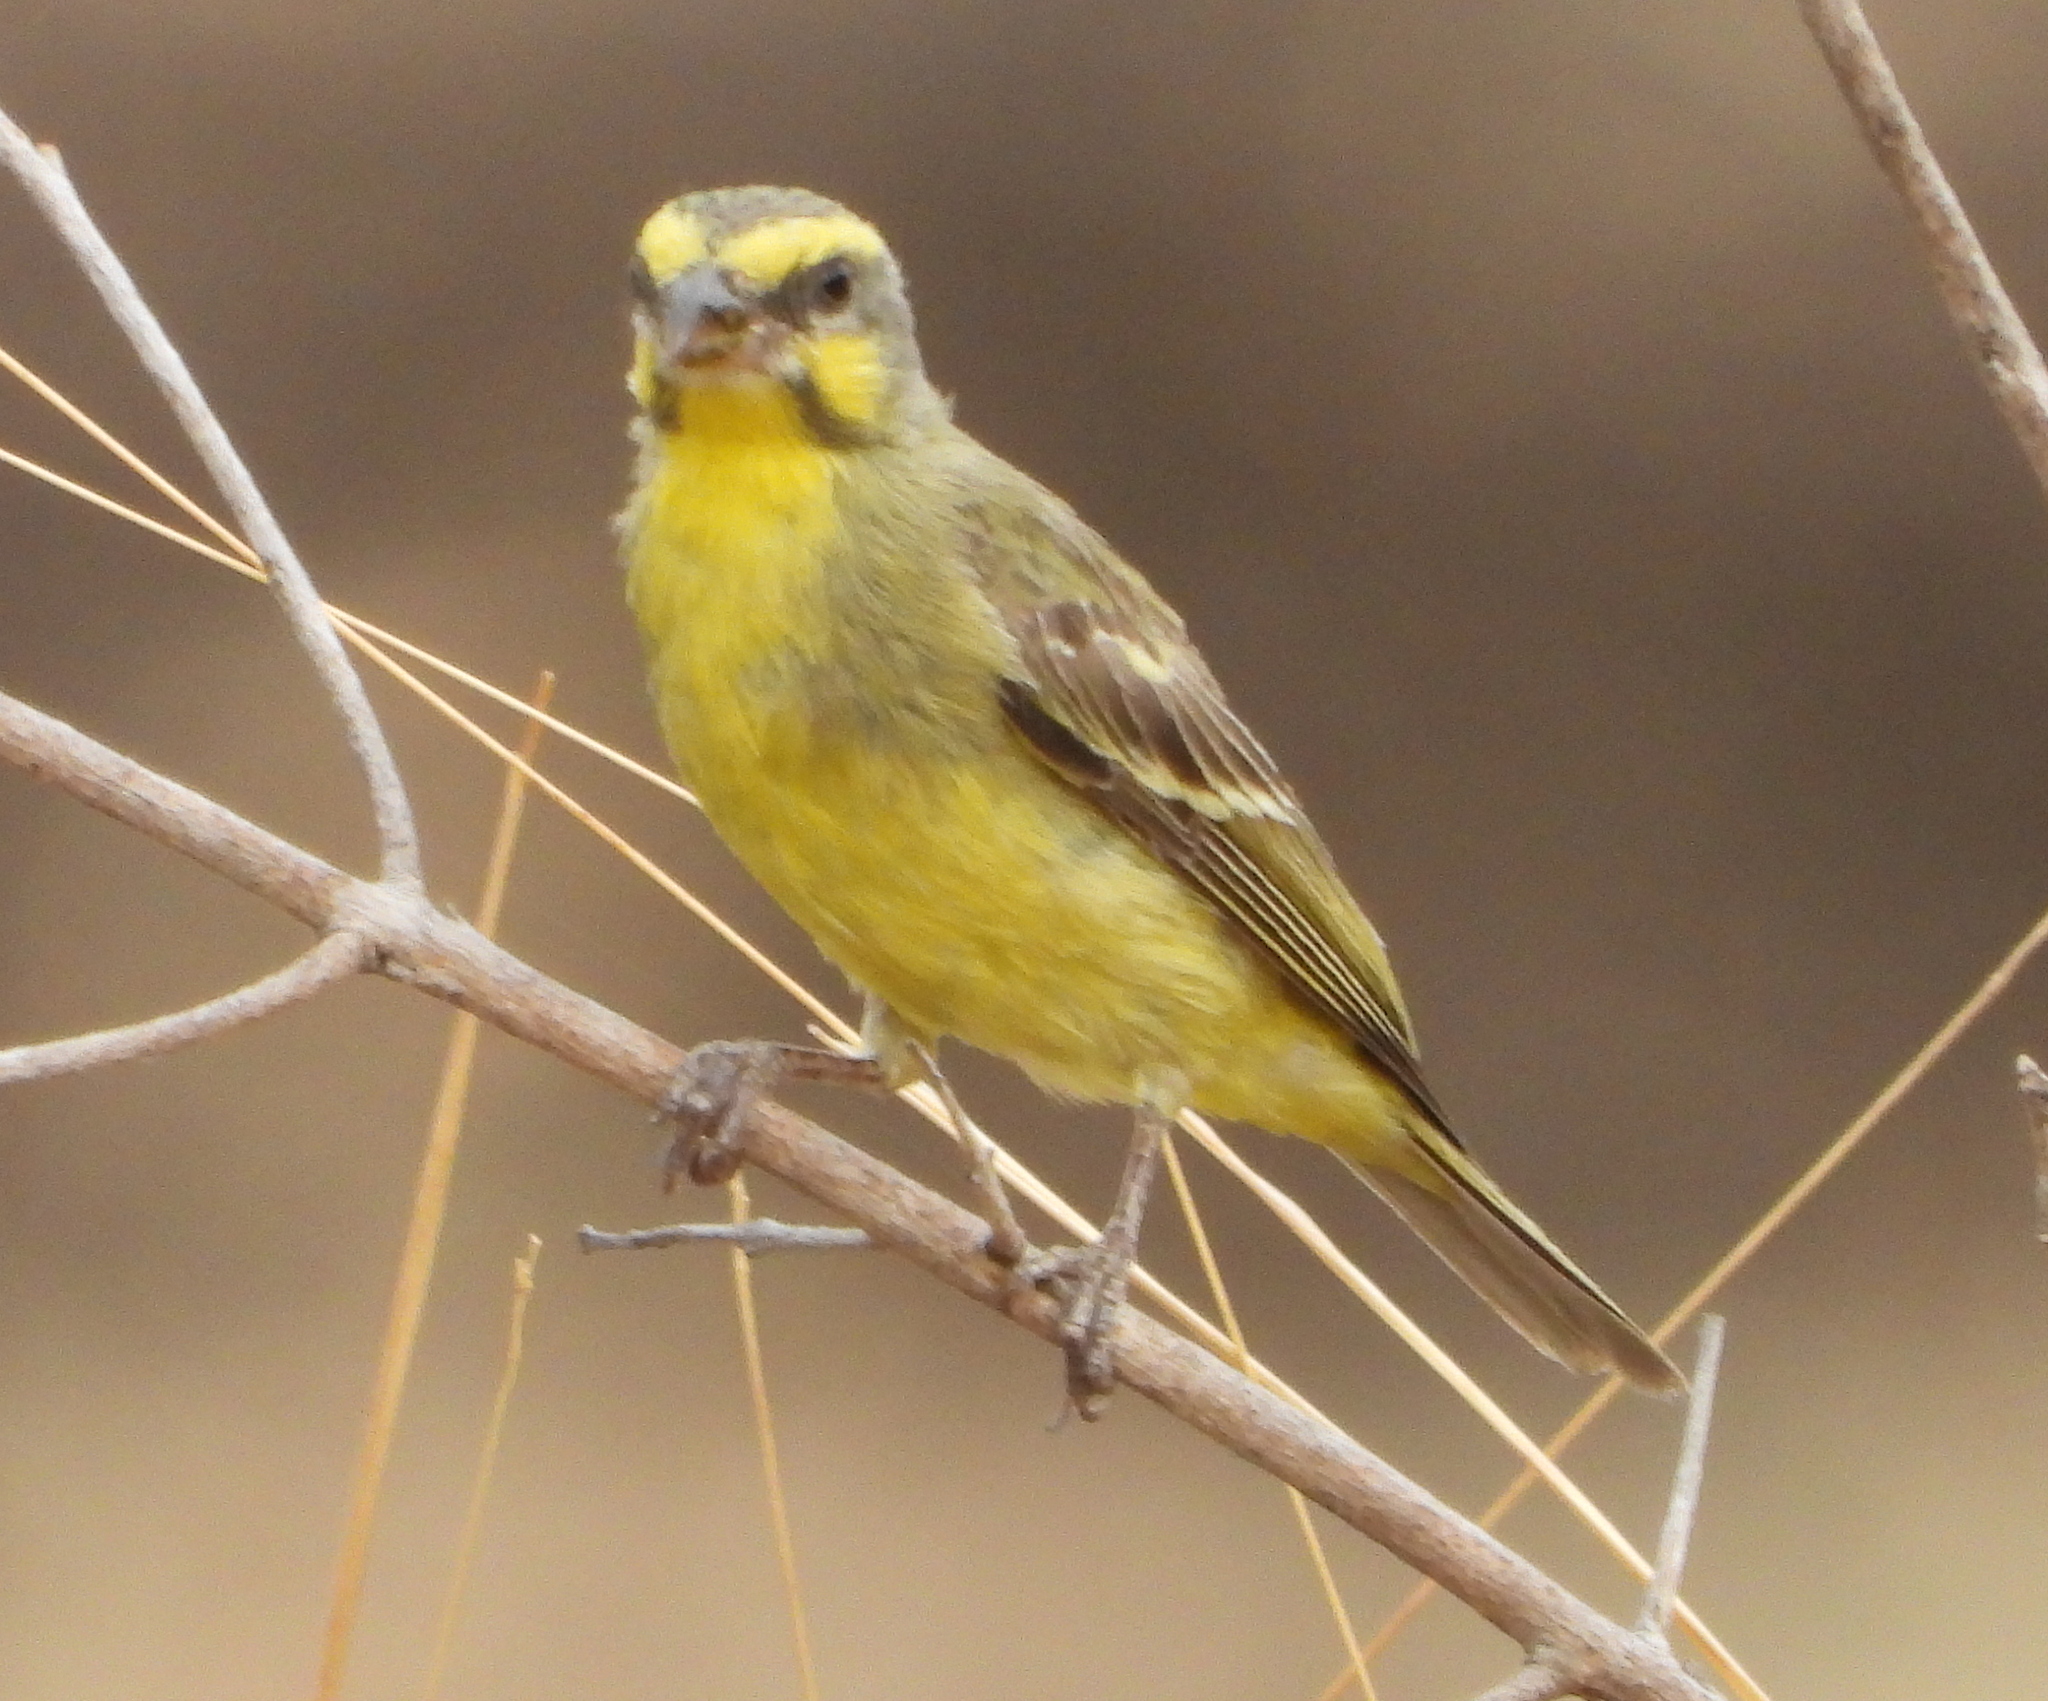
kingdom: Animalia
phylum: Chordata
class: Aves
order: Passeriformes
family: Fringillidae
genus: Crithagra
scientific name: Crithagra mozambica
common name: Yellow-fronted canary
